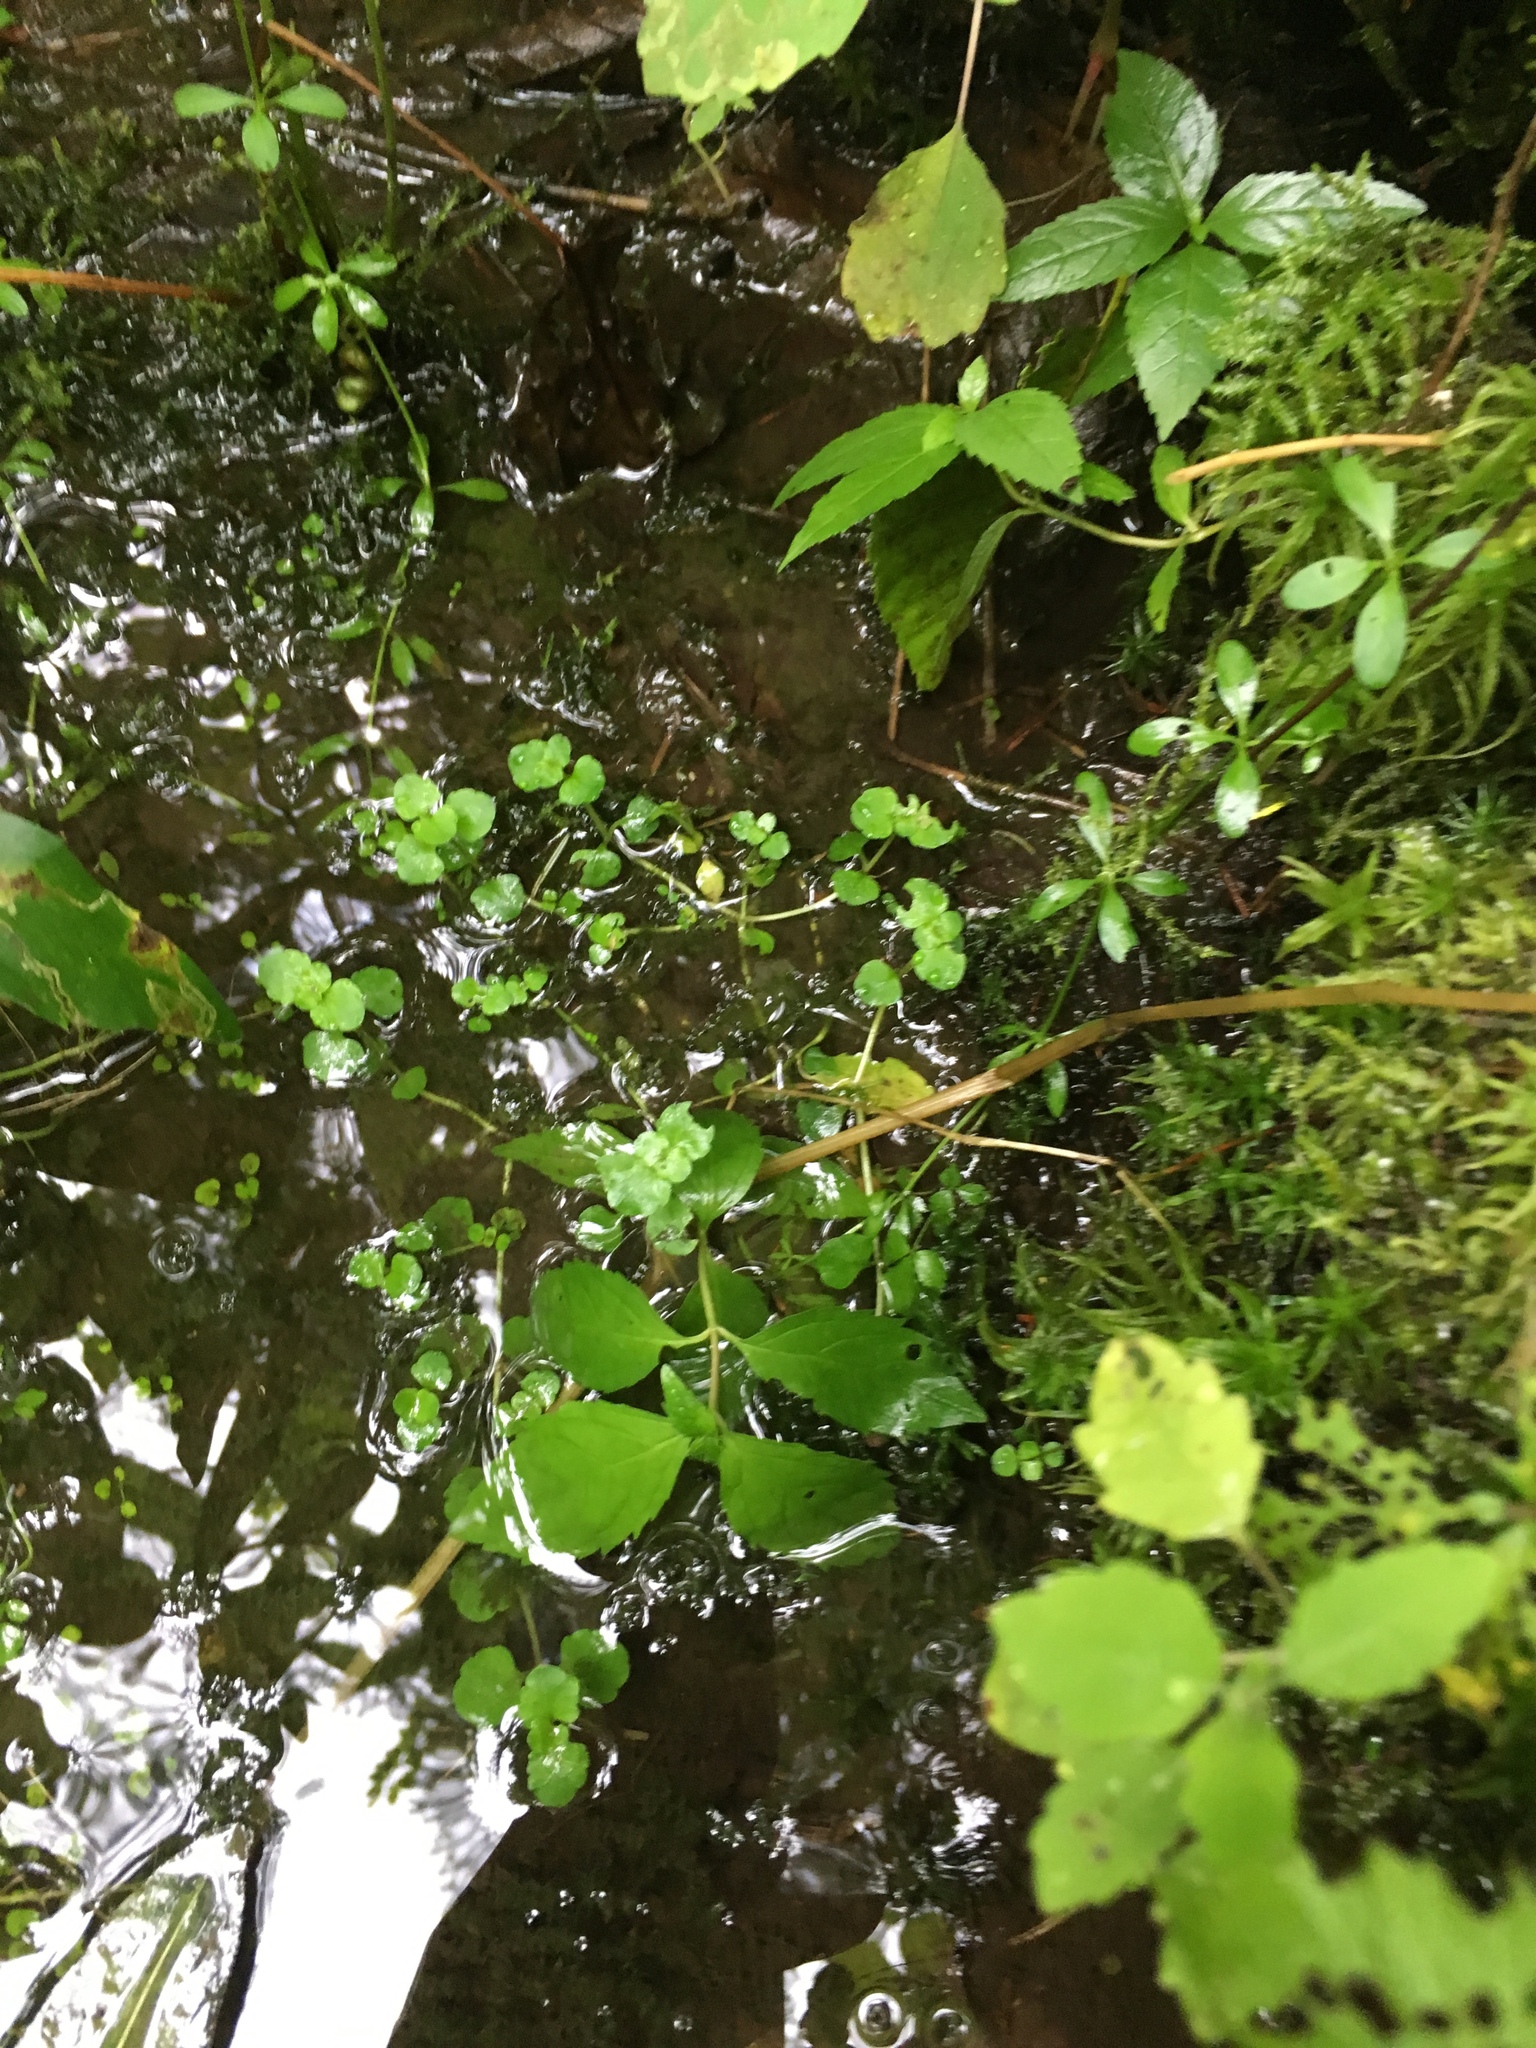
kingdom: Plantae
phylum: Tracheophyta
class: Magnoliopsida
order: Saxifragales
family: Saxifragaceae
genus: Chrysosplenium
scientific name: Chrysosplenium americanum
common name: American golden-saxifrage
